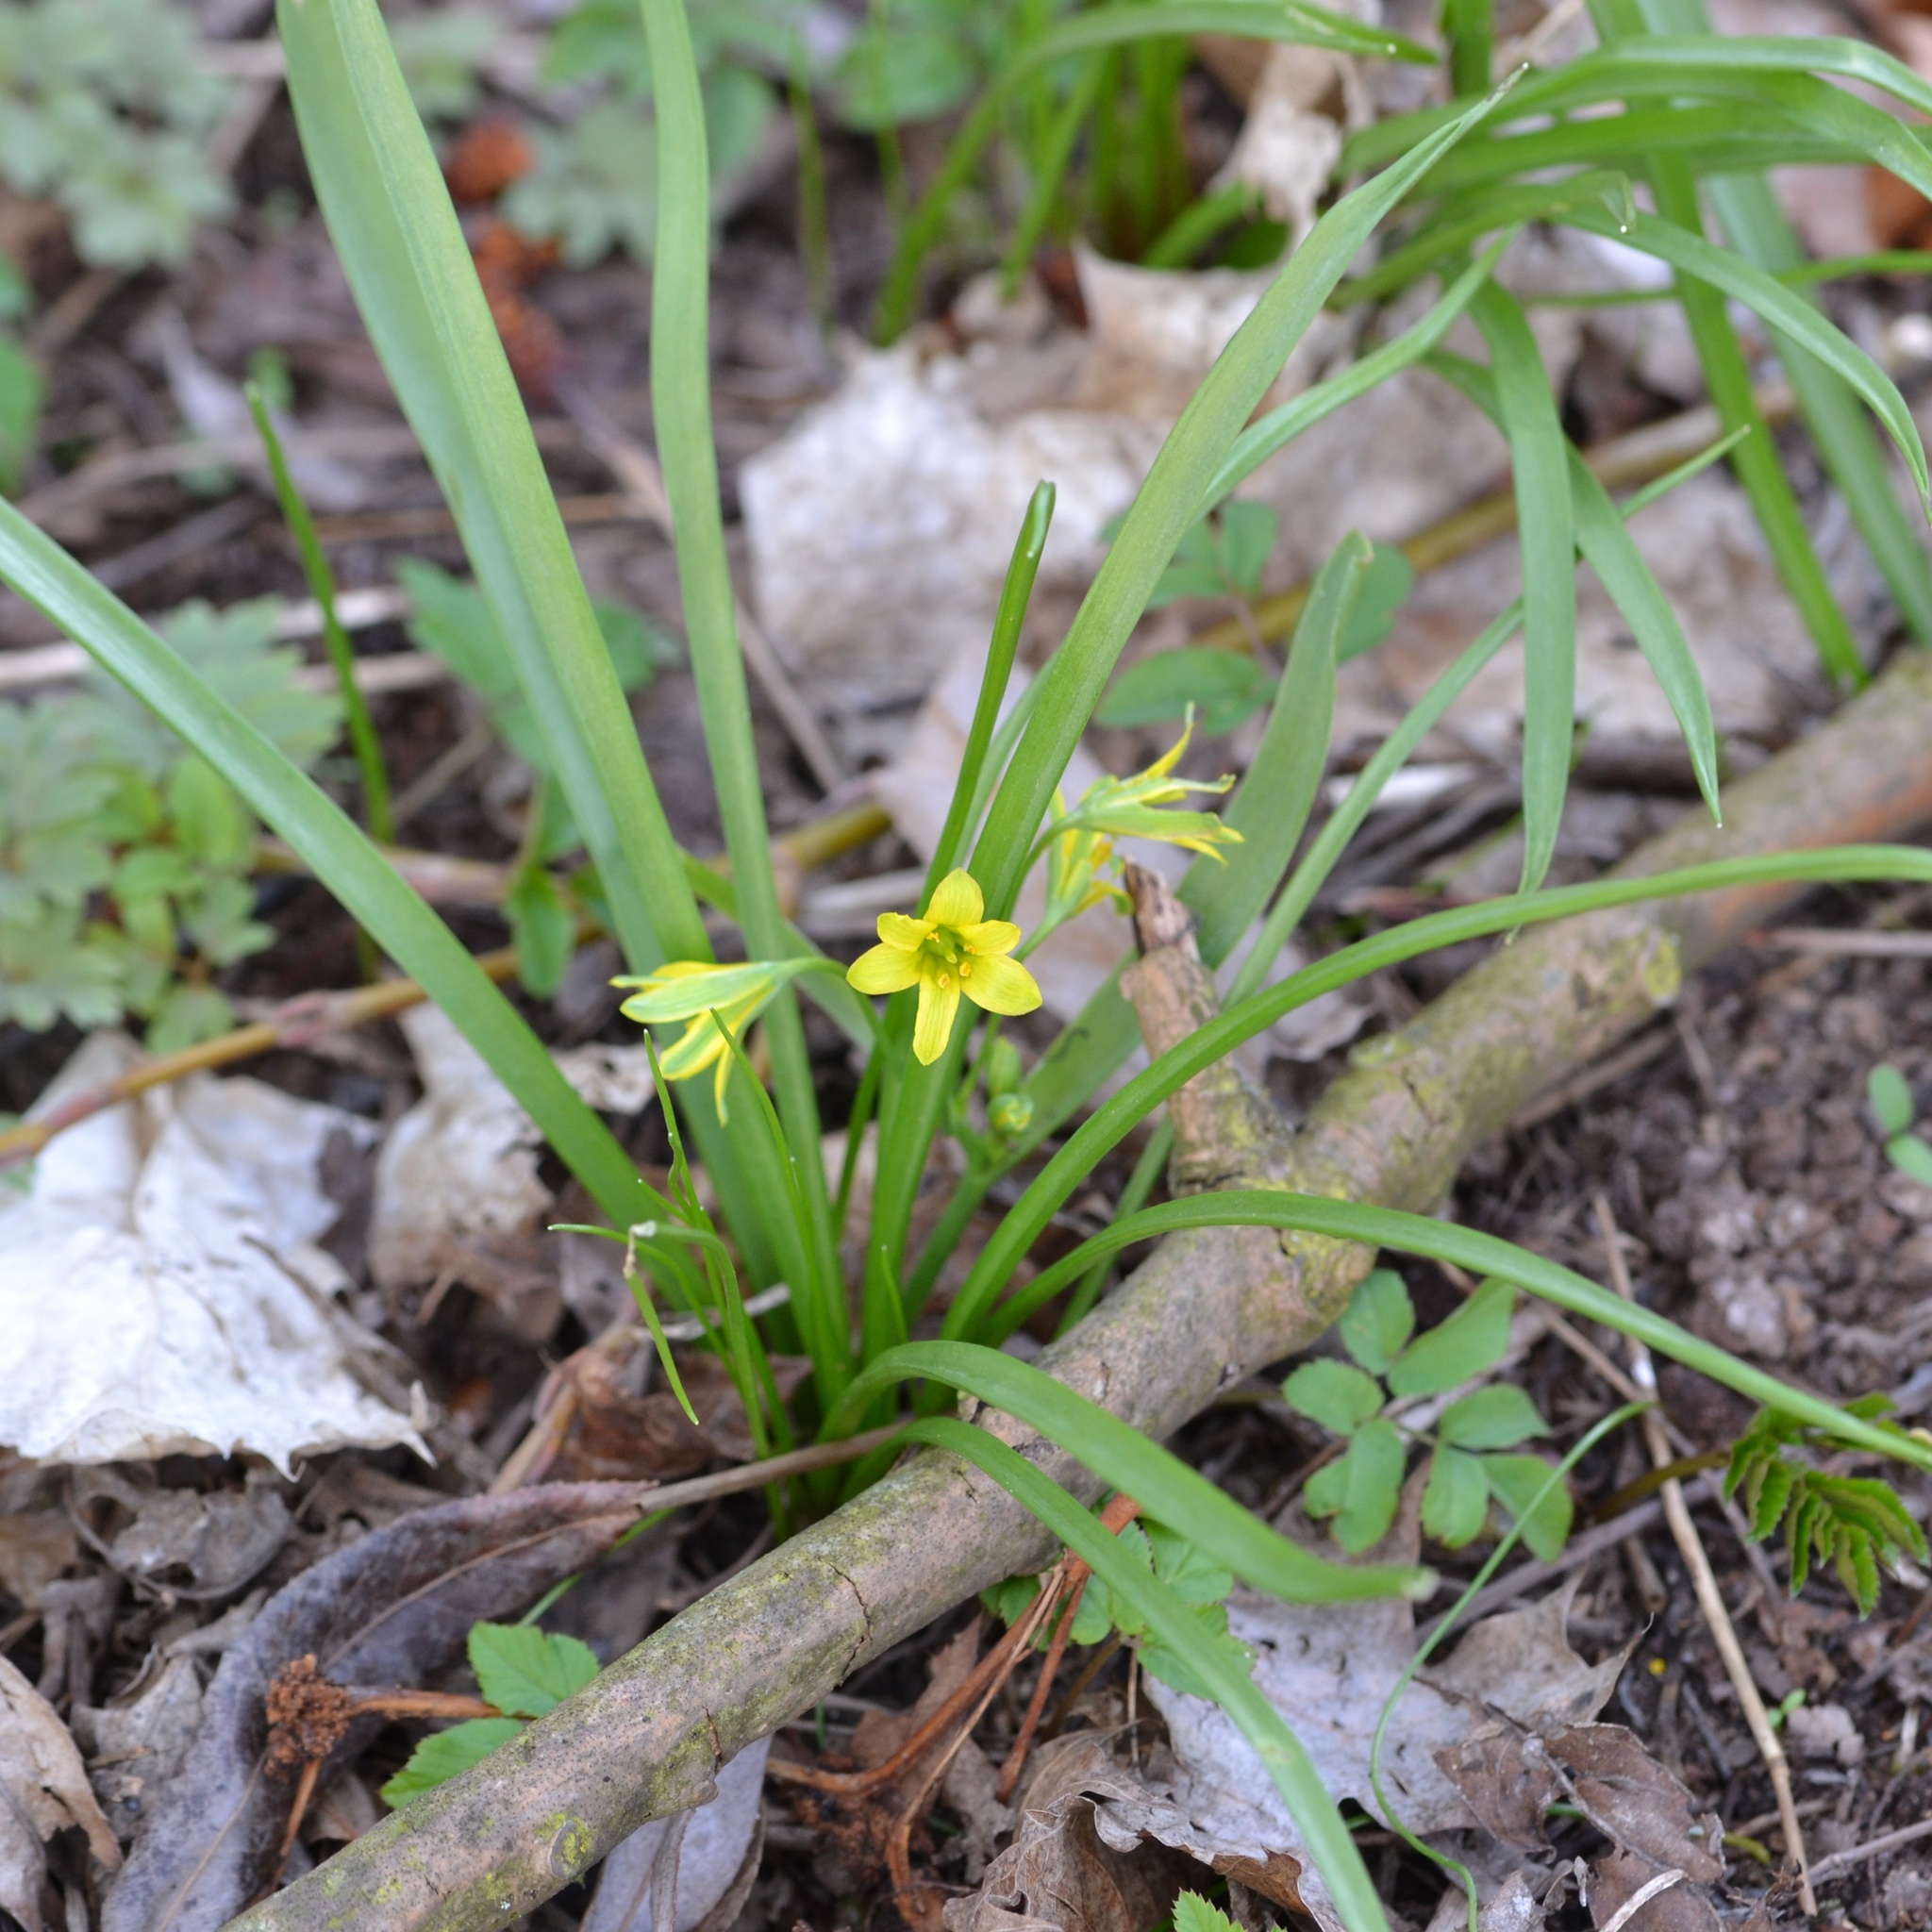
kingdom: Plantae
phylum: Tracheophyta
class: Liliopsida
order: Liliales
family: Liliaceae
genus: Gagea
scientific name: Gagea lutea
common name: Yellow star-of-bethlehem
